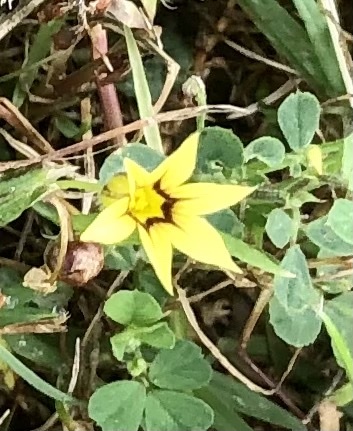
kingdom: Plantae
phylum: Tracheophyta
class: Liliopsida
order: Asparagales
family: Iridaceae
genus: Sisyrinchium
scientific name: Sisyrinchium micranthum
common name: Bermuda pigroot
